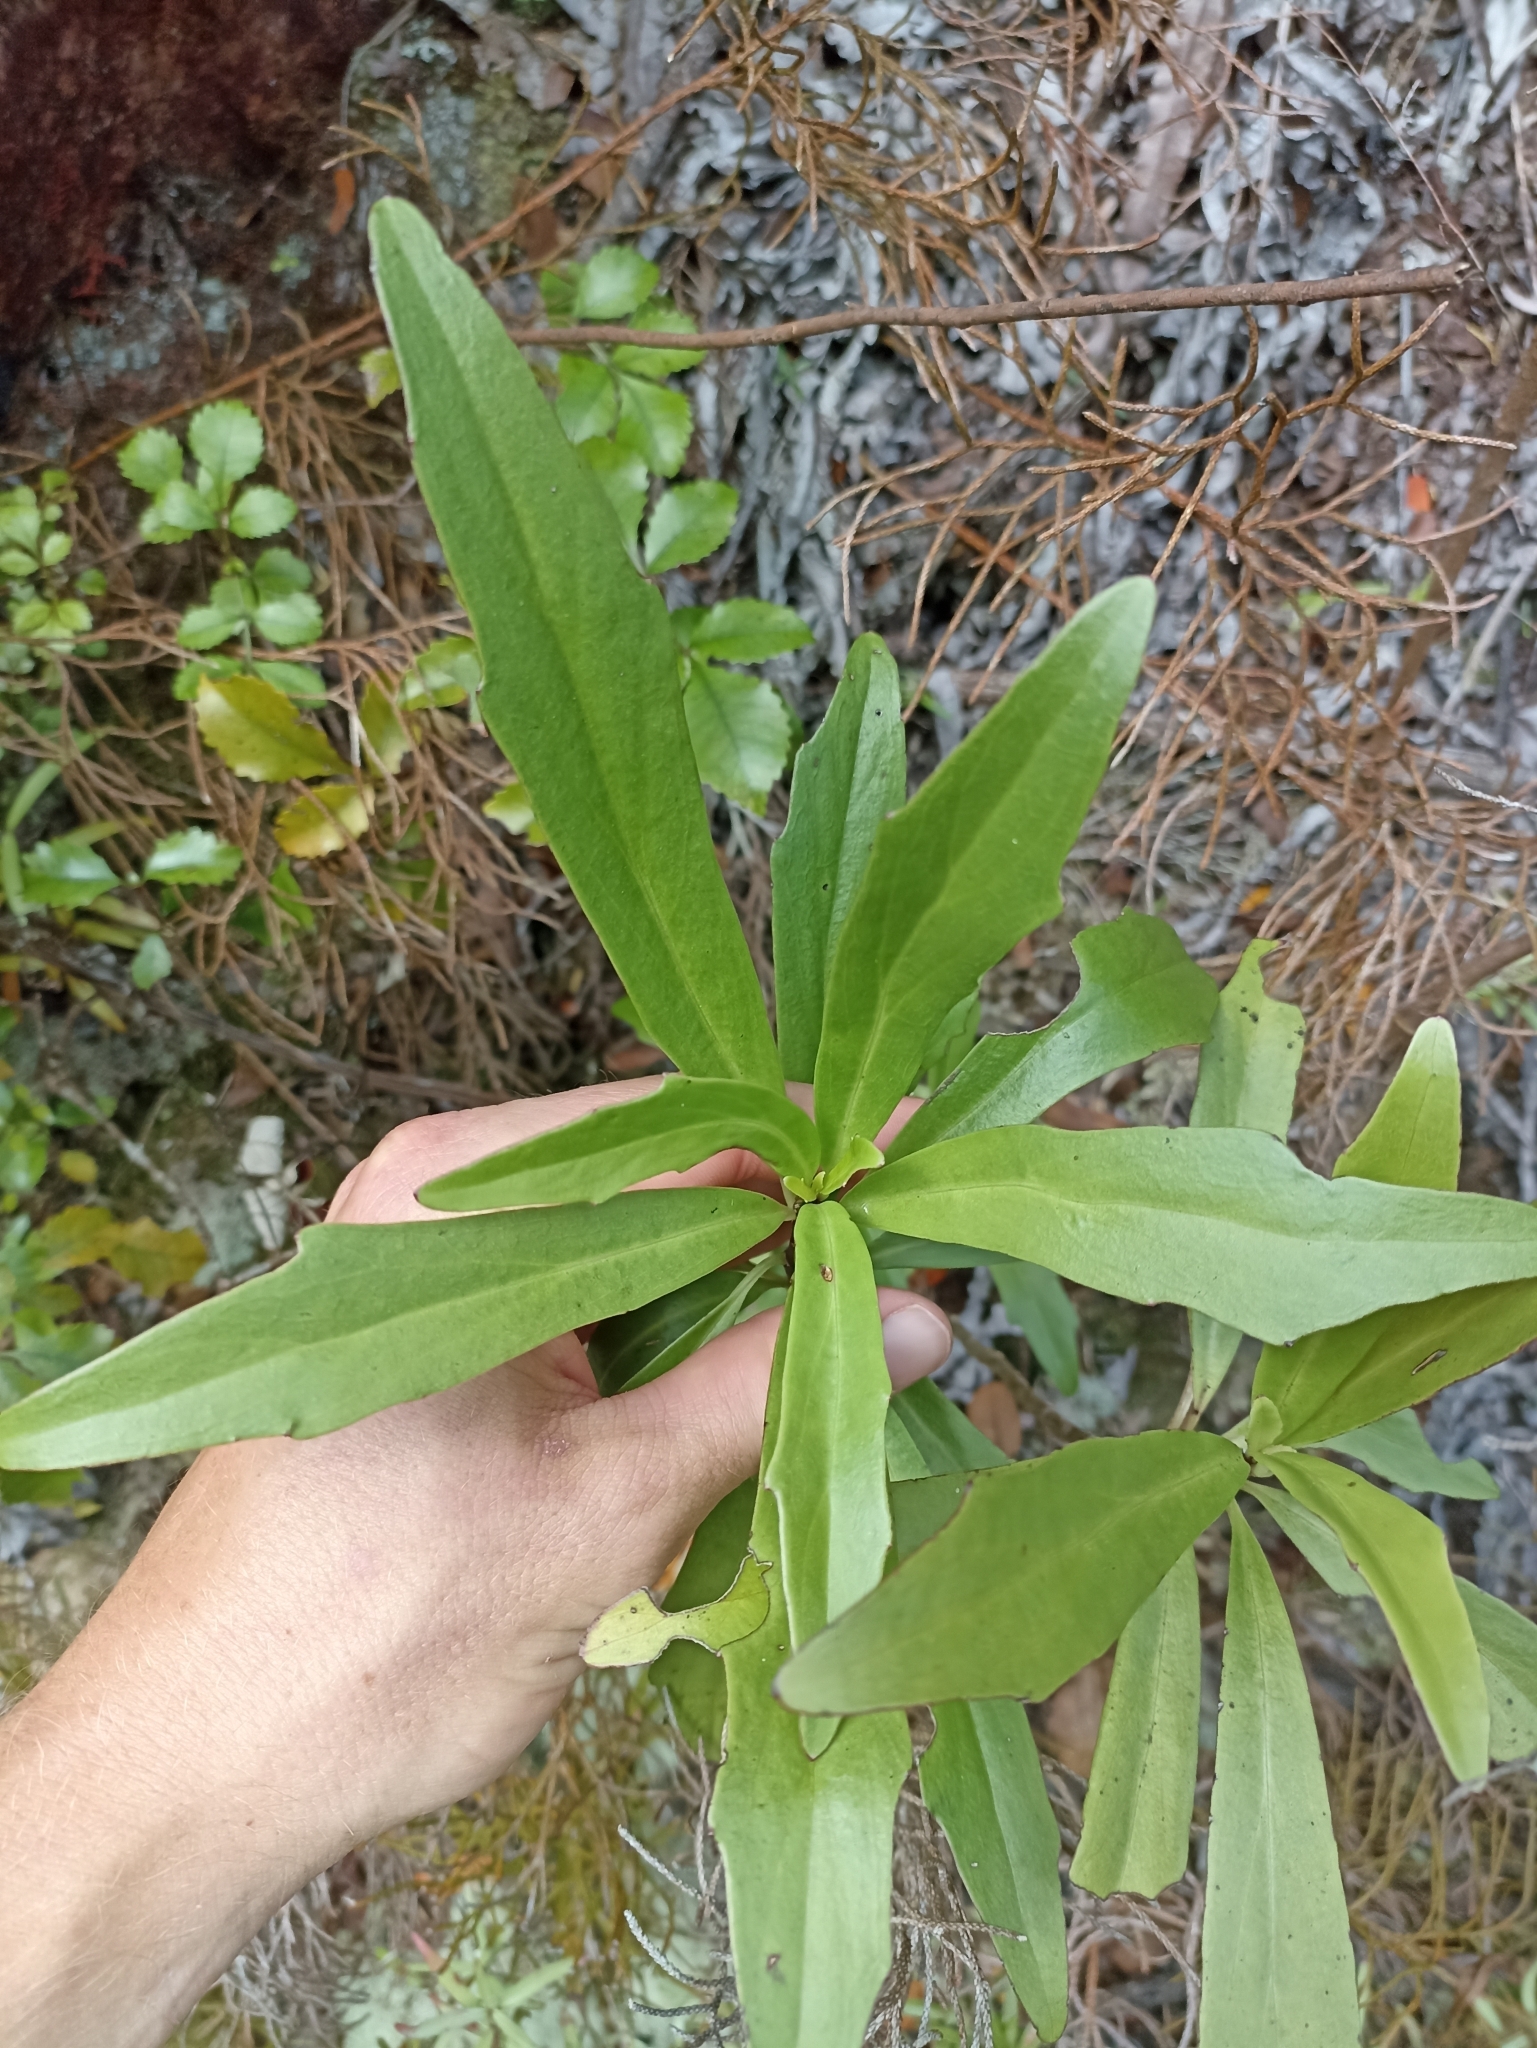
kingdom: Plantae
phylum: Tracheophyta
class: Magnoliopsida
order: Asterales
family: Asteraceae
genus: Brachyglottis
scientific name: Brachyglottis kirkii
